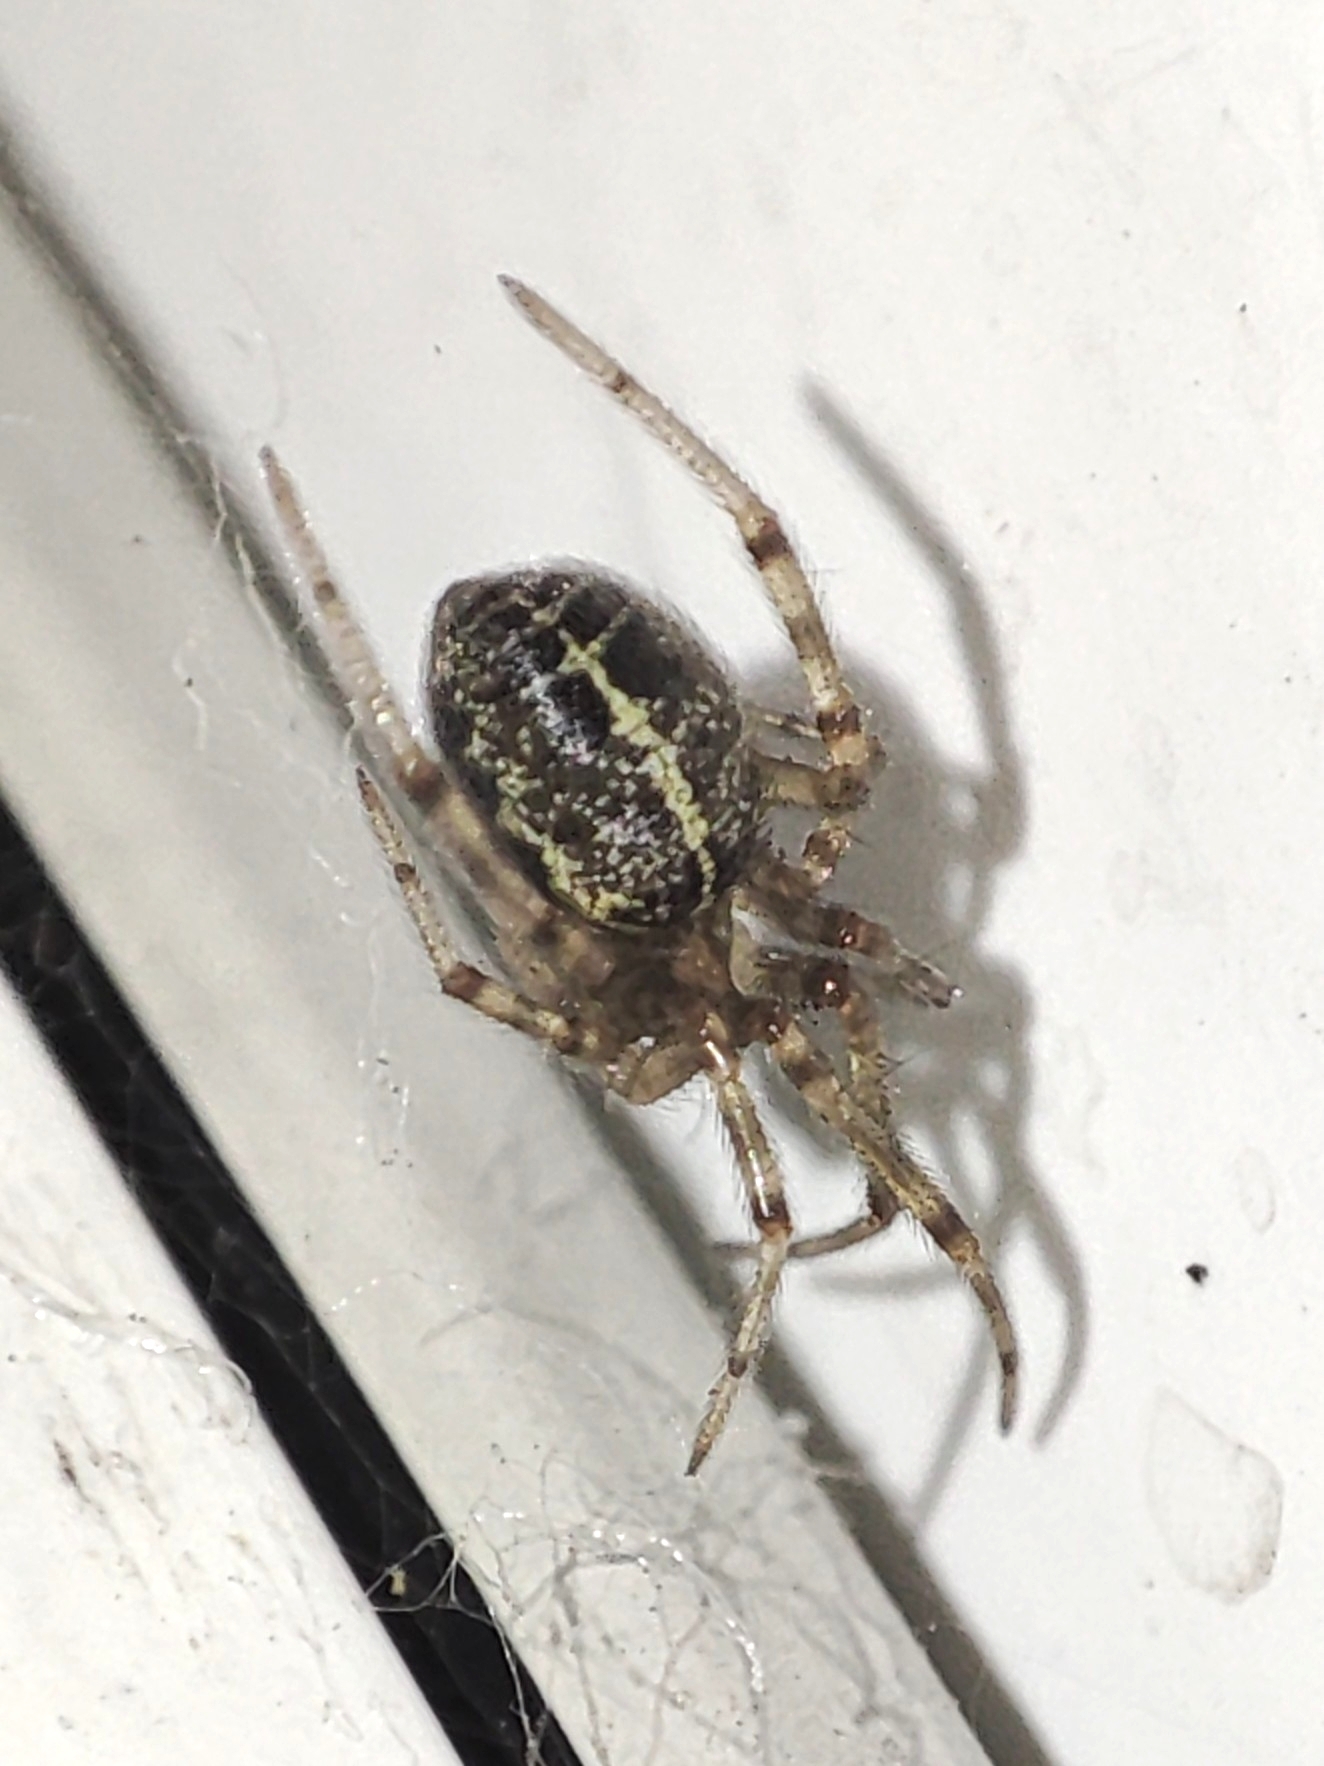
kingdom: Animalia
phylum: Arthropoda
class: Arachnida
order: Araneae
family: Theridiidae
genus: Steatoda
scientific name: Steatoda castanea
